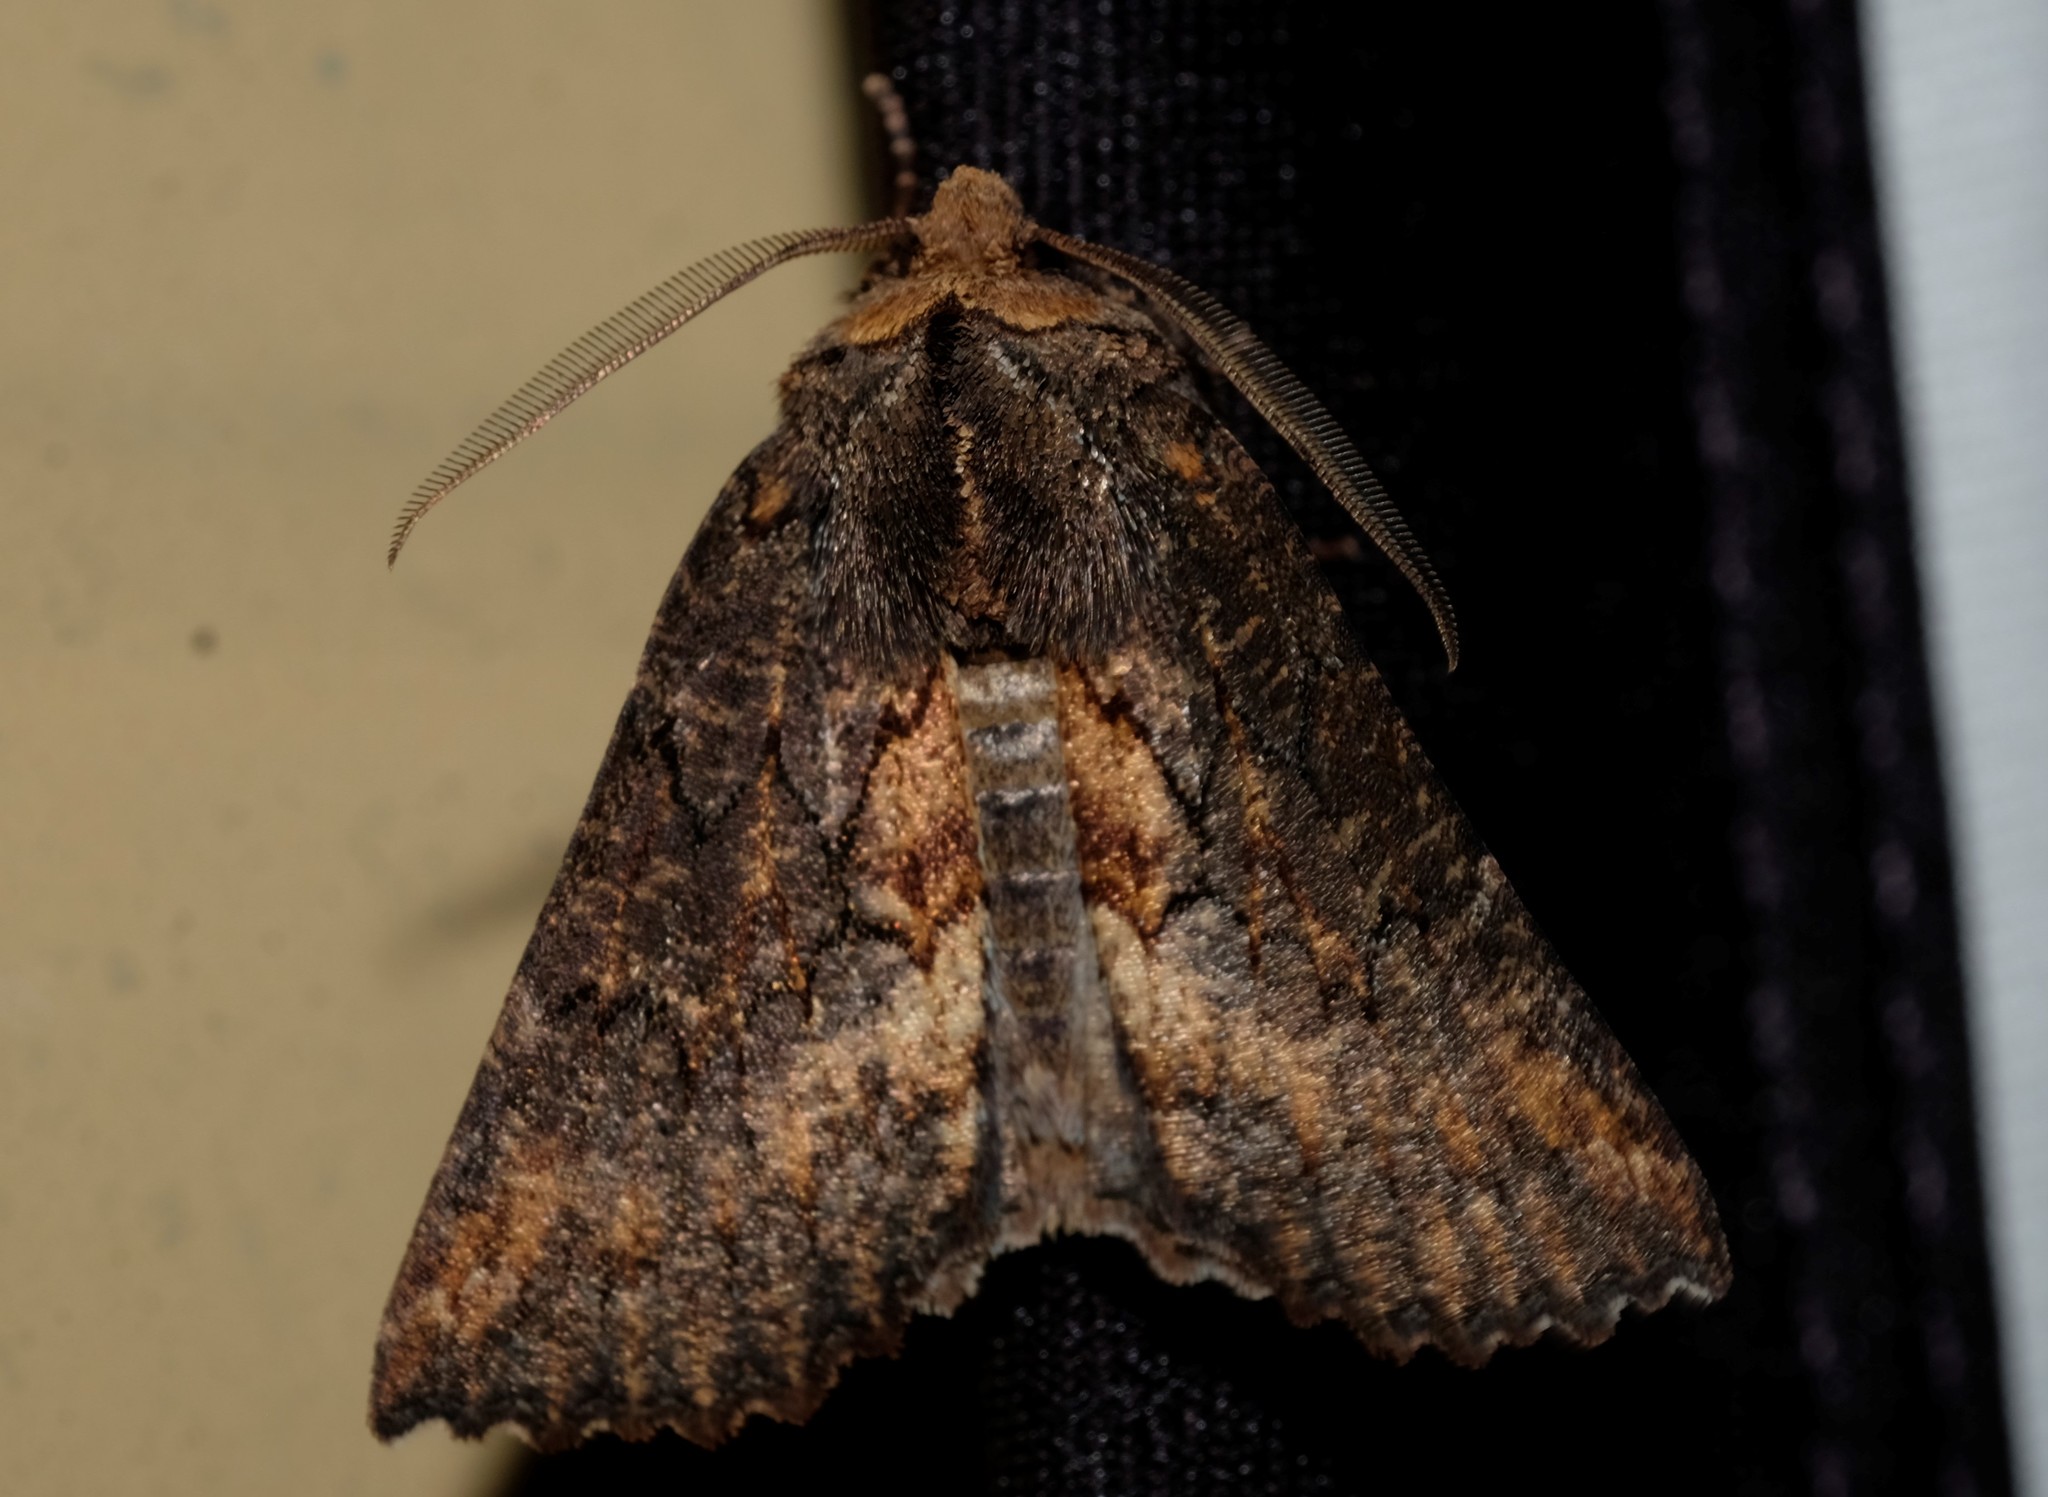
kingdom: Animalia
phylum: Arthropoda
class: Insecta
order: Lepidoptera
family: Geometridae
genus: Nisista
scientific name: Nisista serrata
